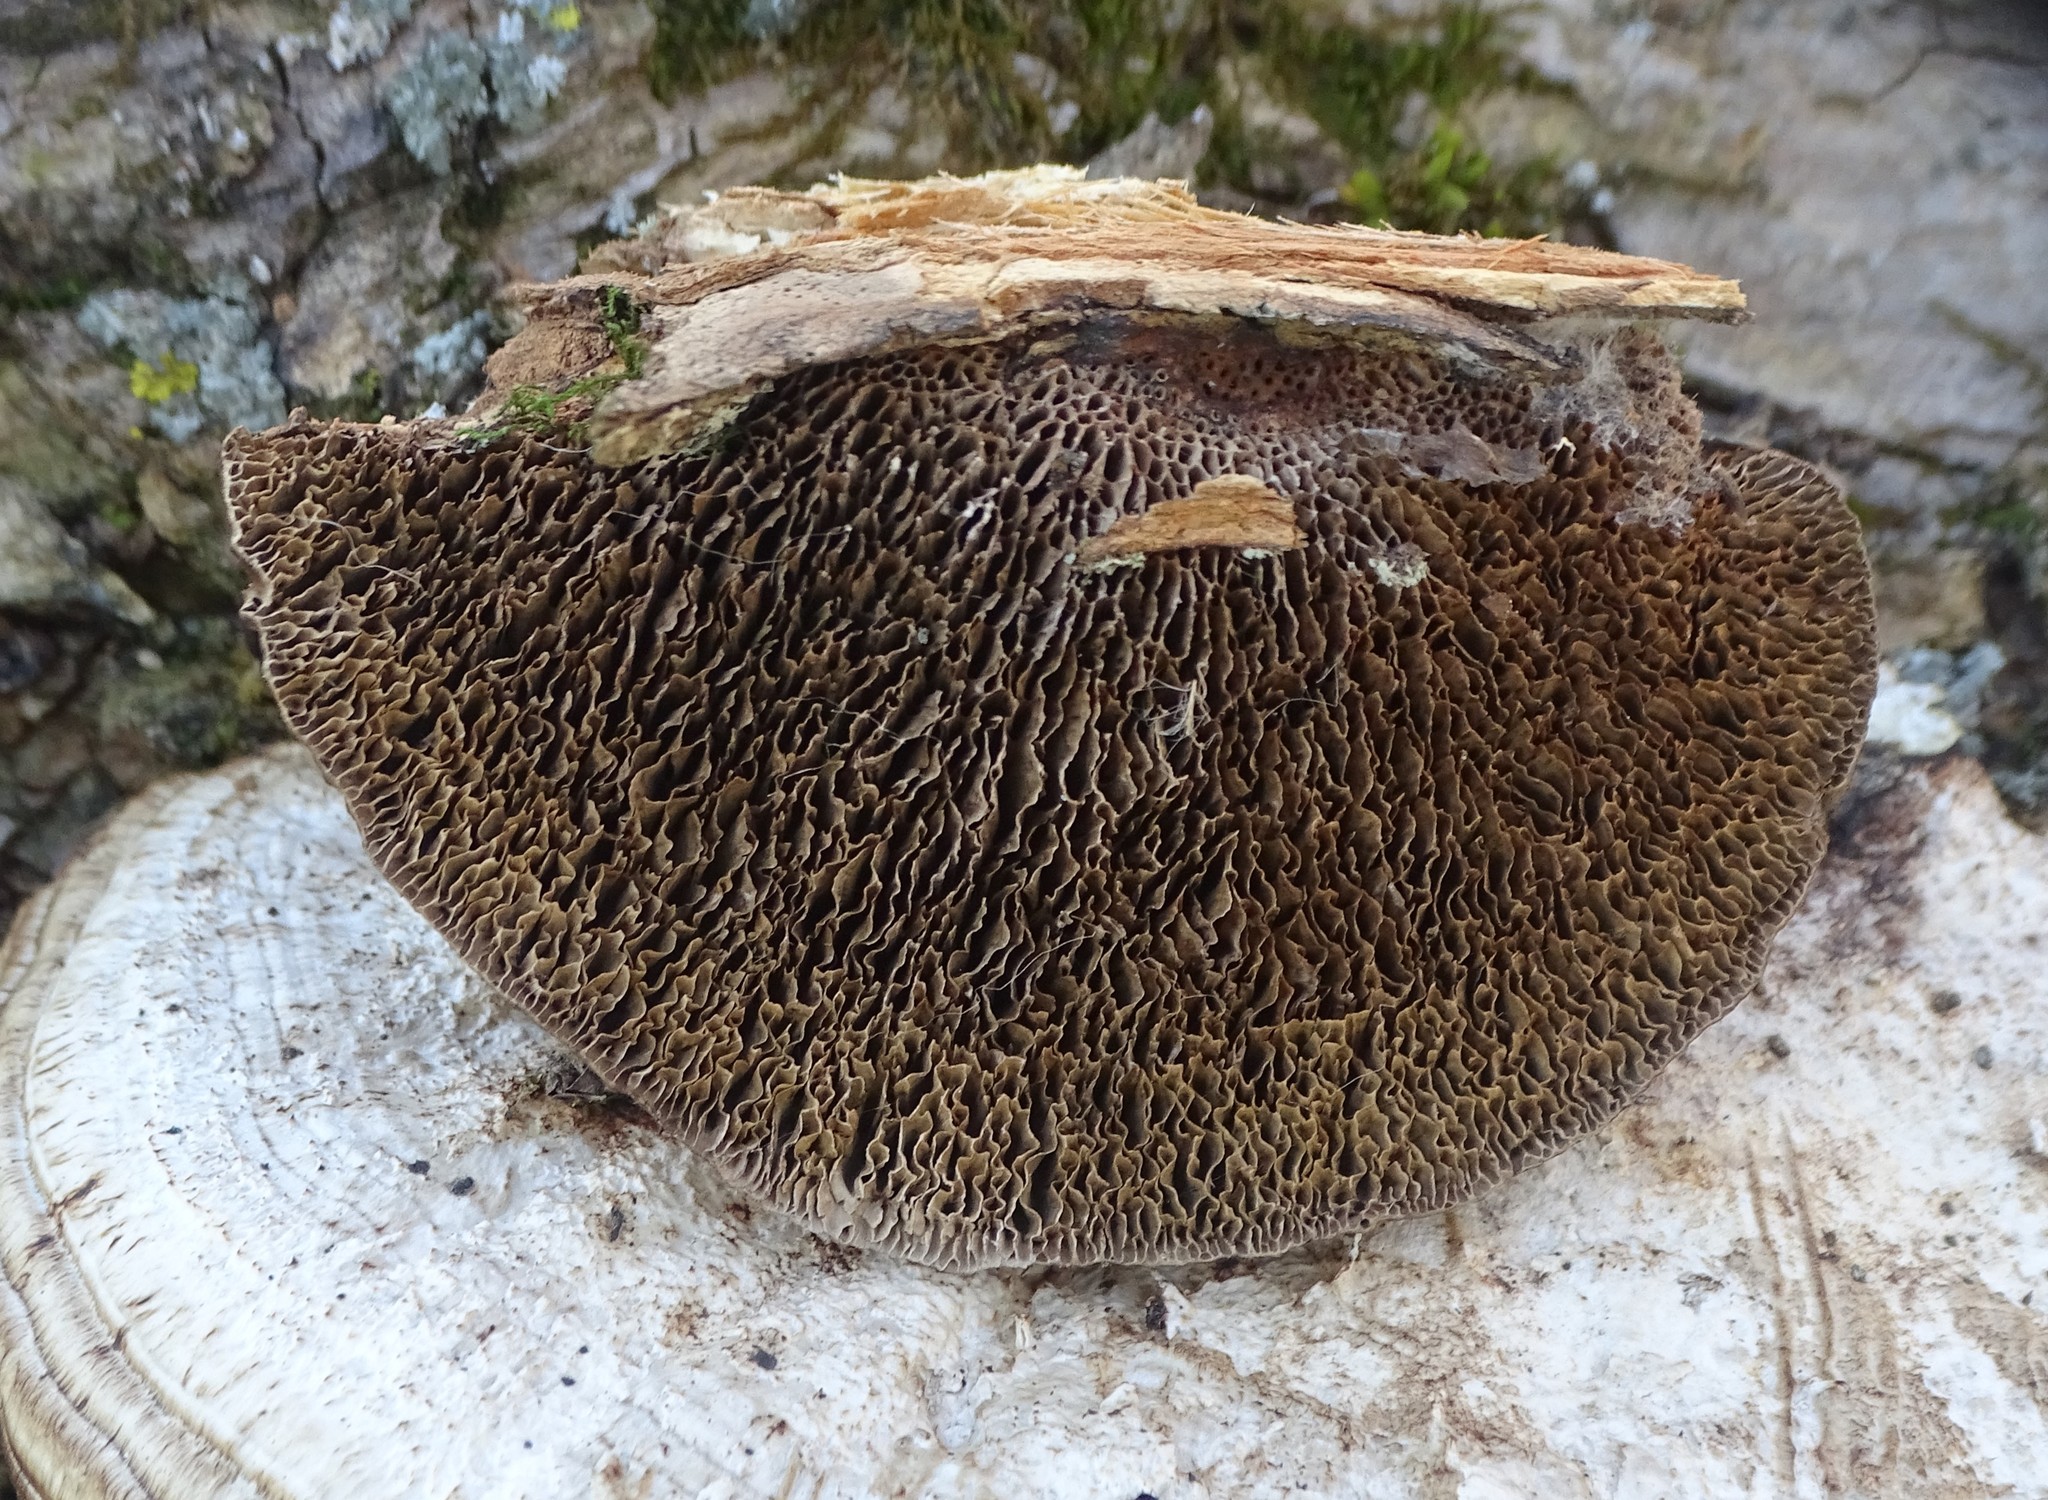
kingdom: Fungi
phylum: Basidiomycota
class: Agaricomycetes
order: Polyporales
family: Polyporaceae
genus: Daedaleopsis
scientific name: Daedaleopsis confragosa
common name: Blushing bracket
